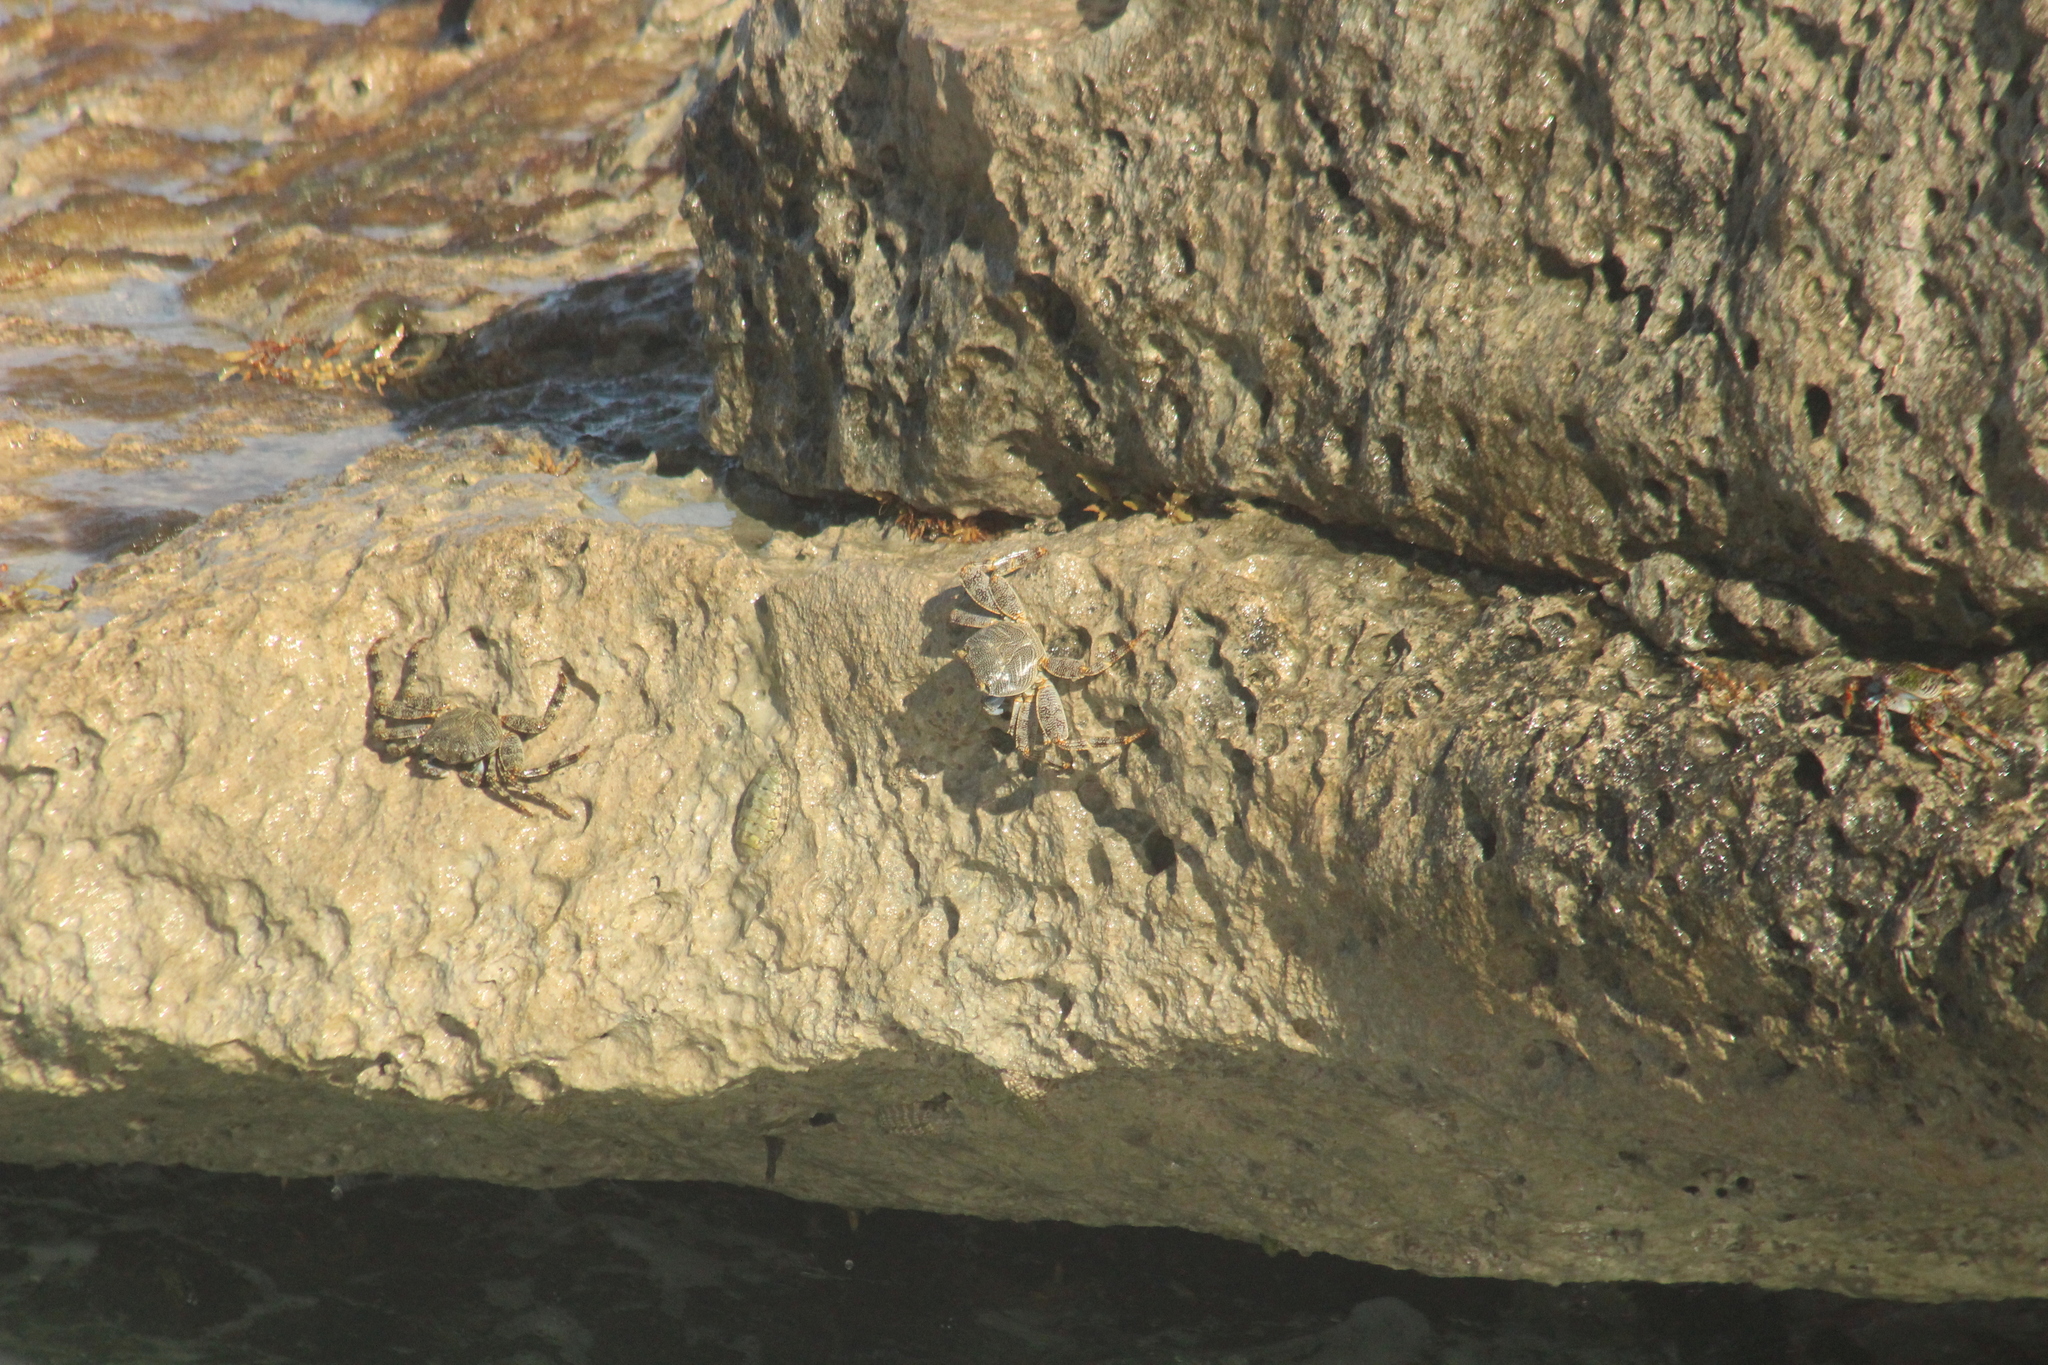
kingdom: Animalia
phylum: Arthropoda
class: Malacostraca
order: Decapoda
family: Grapsidae
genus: Grapsus
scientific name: Grapsus grapsus
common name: Sally lightfoot
